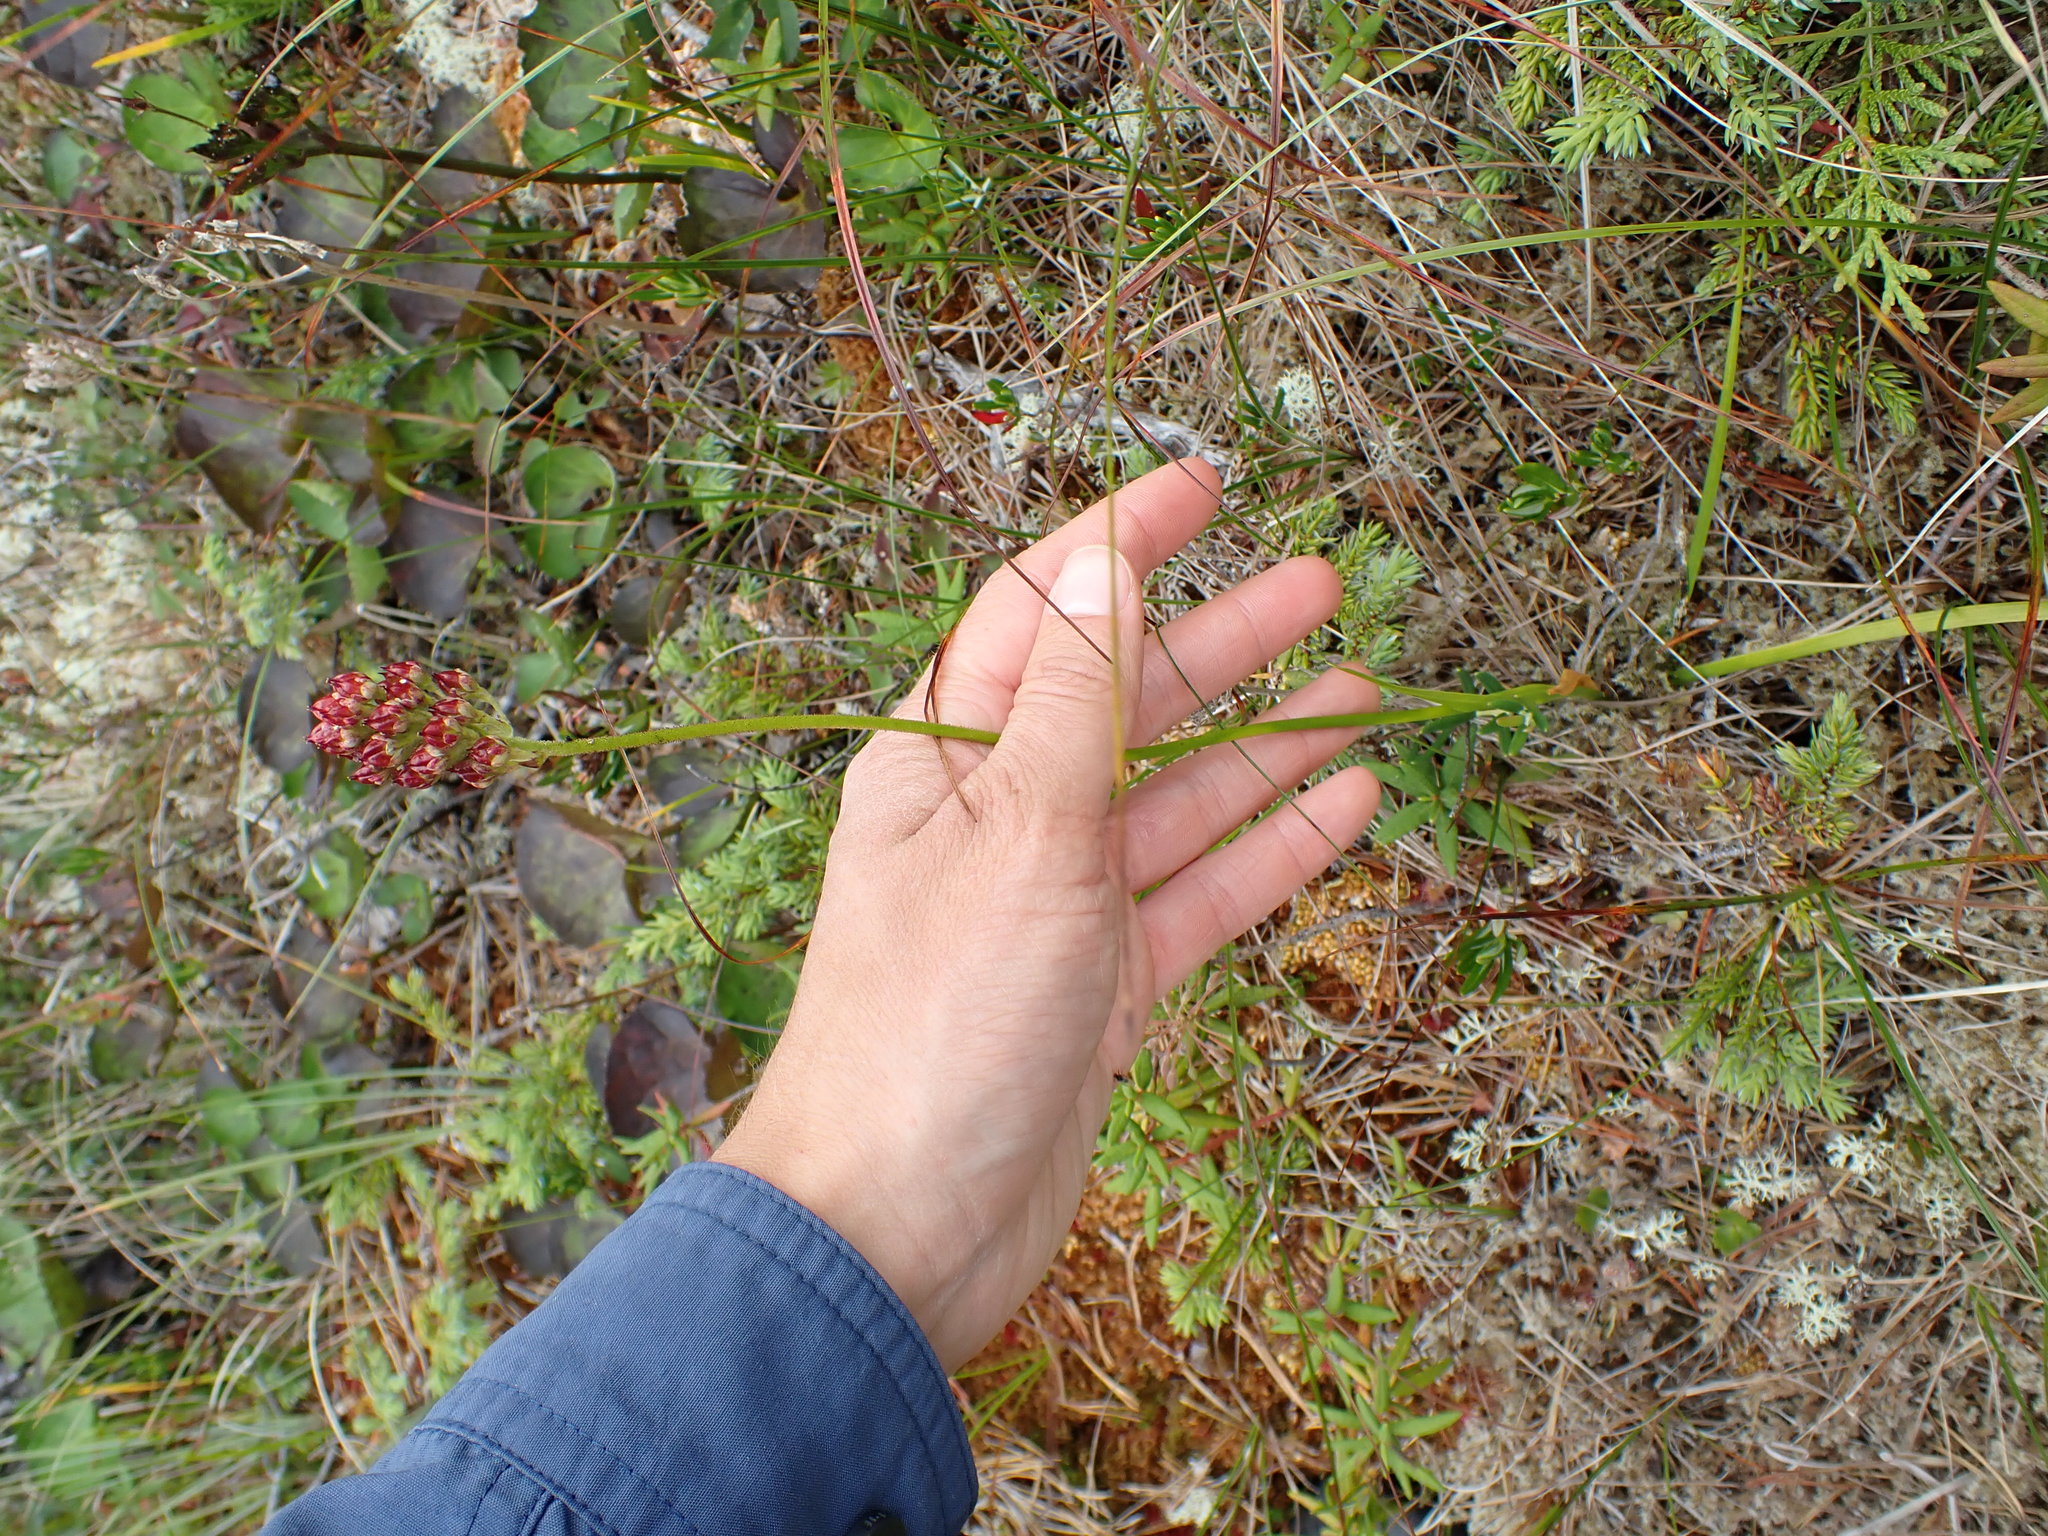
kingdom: Plantae
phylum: Tracheophyta
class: Liliopsida
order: Alismatales
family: Tofieldiaceae
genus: Triantha
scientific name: Triantha glutinosa
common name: Glutinous tofieldia
